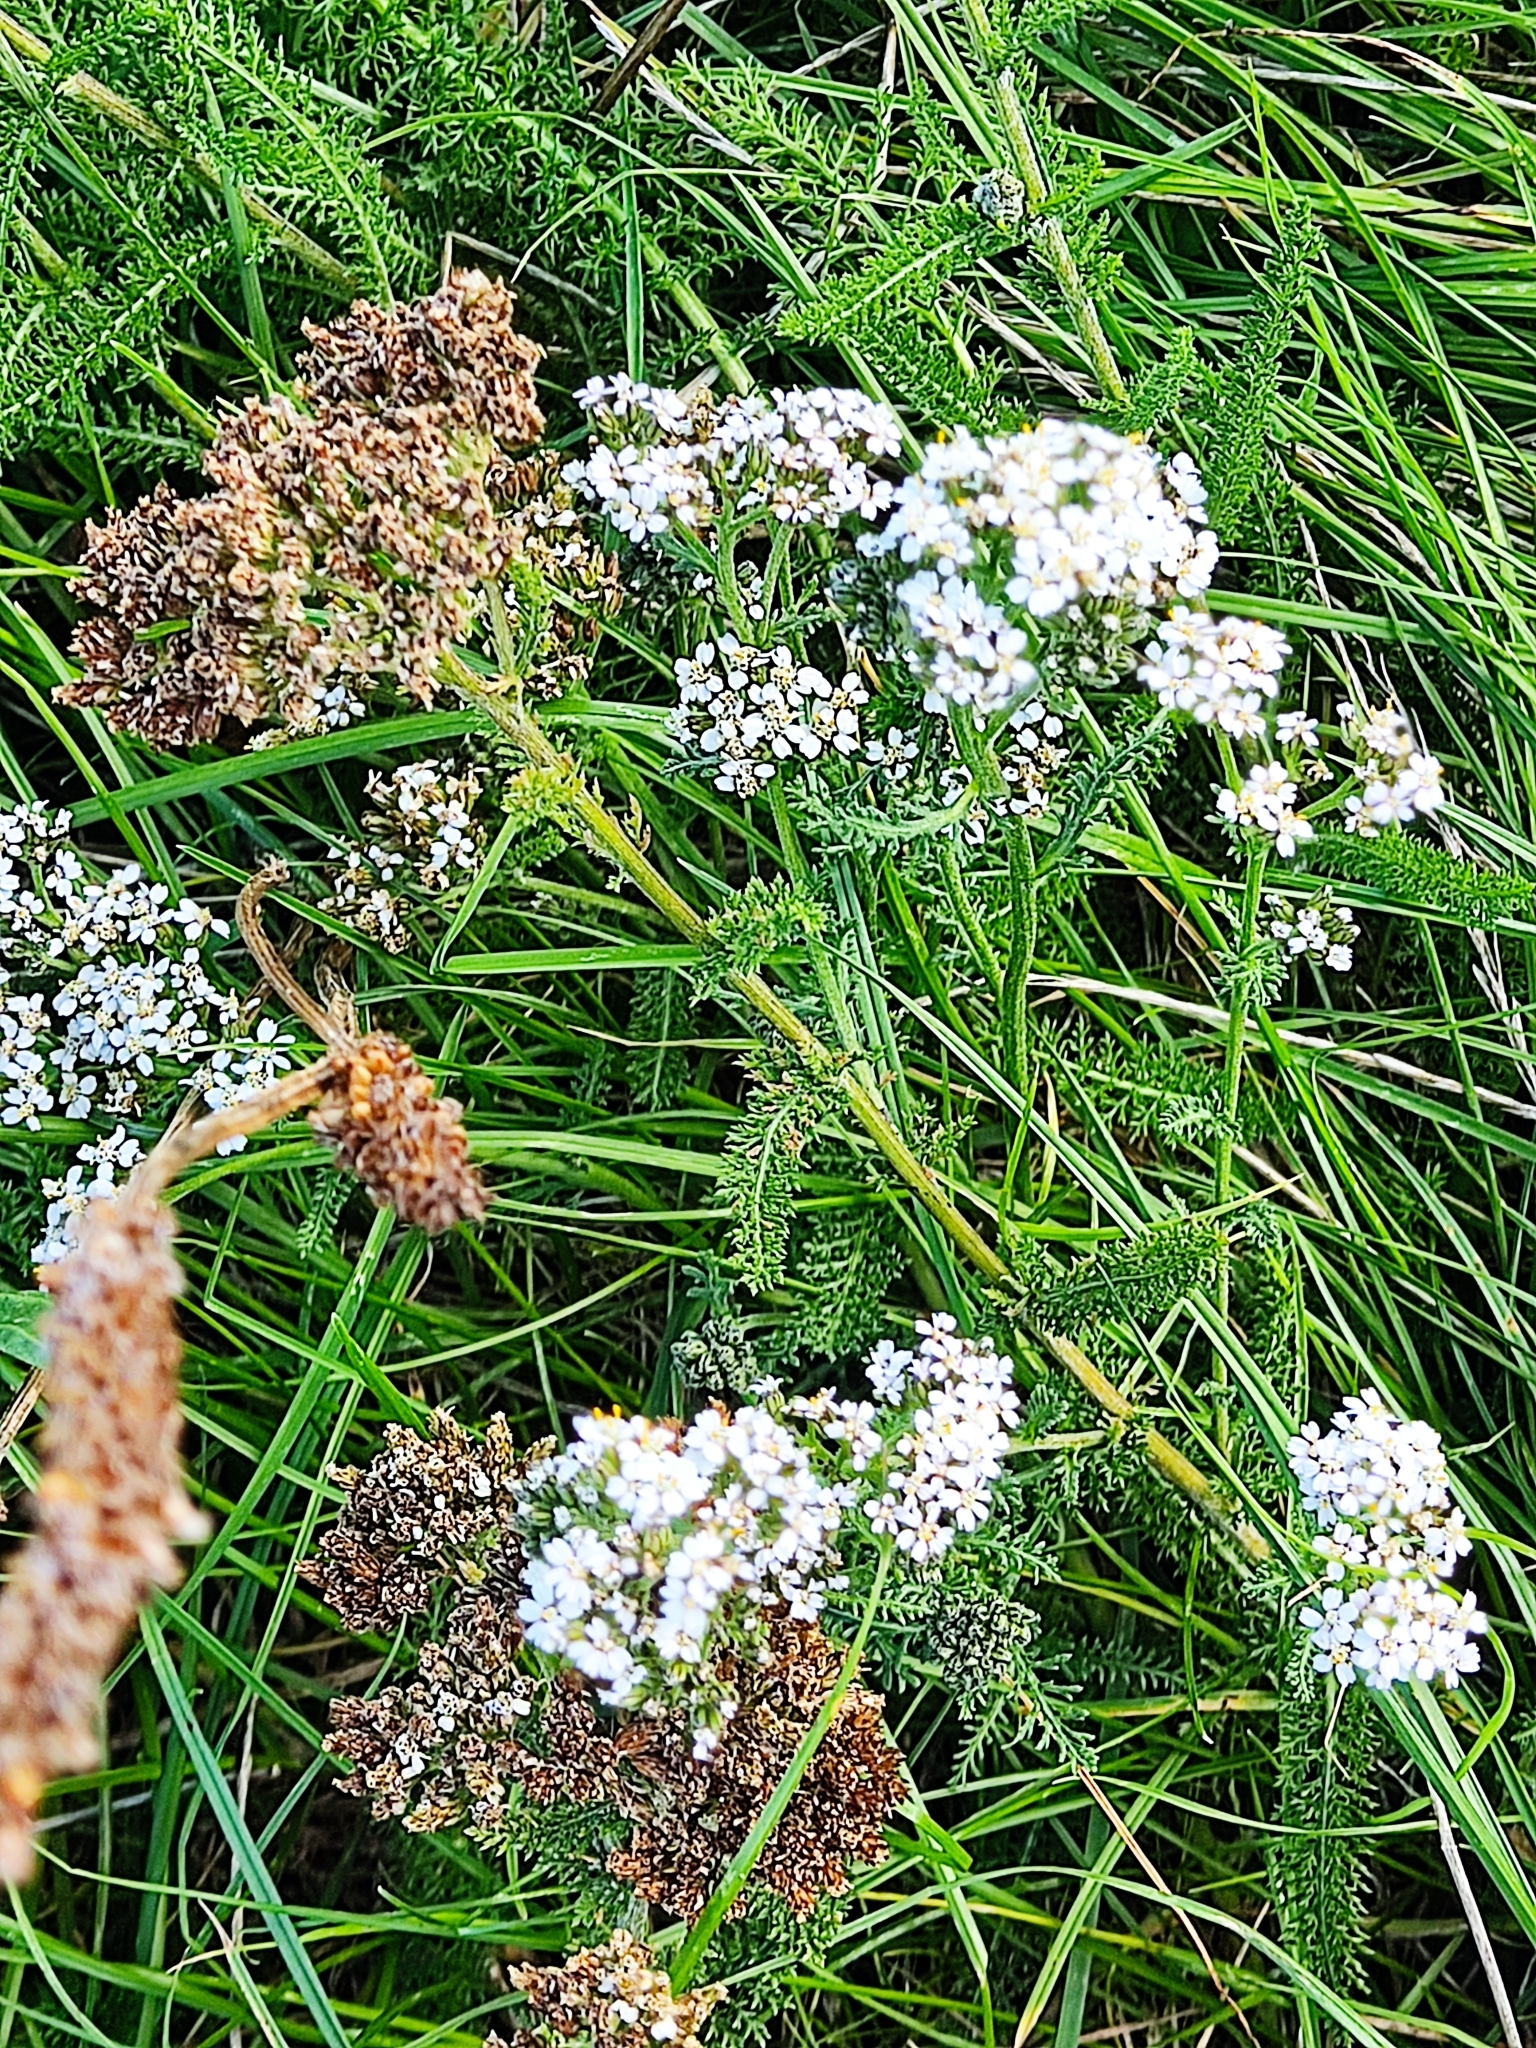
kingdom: Plantae
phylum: Tracheophyta
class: Magnoliopsida
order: Asterales
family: Asteraceae
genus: Achillea
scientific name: Achillea millefolium
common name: Yarrow
